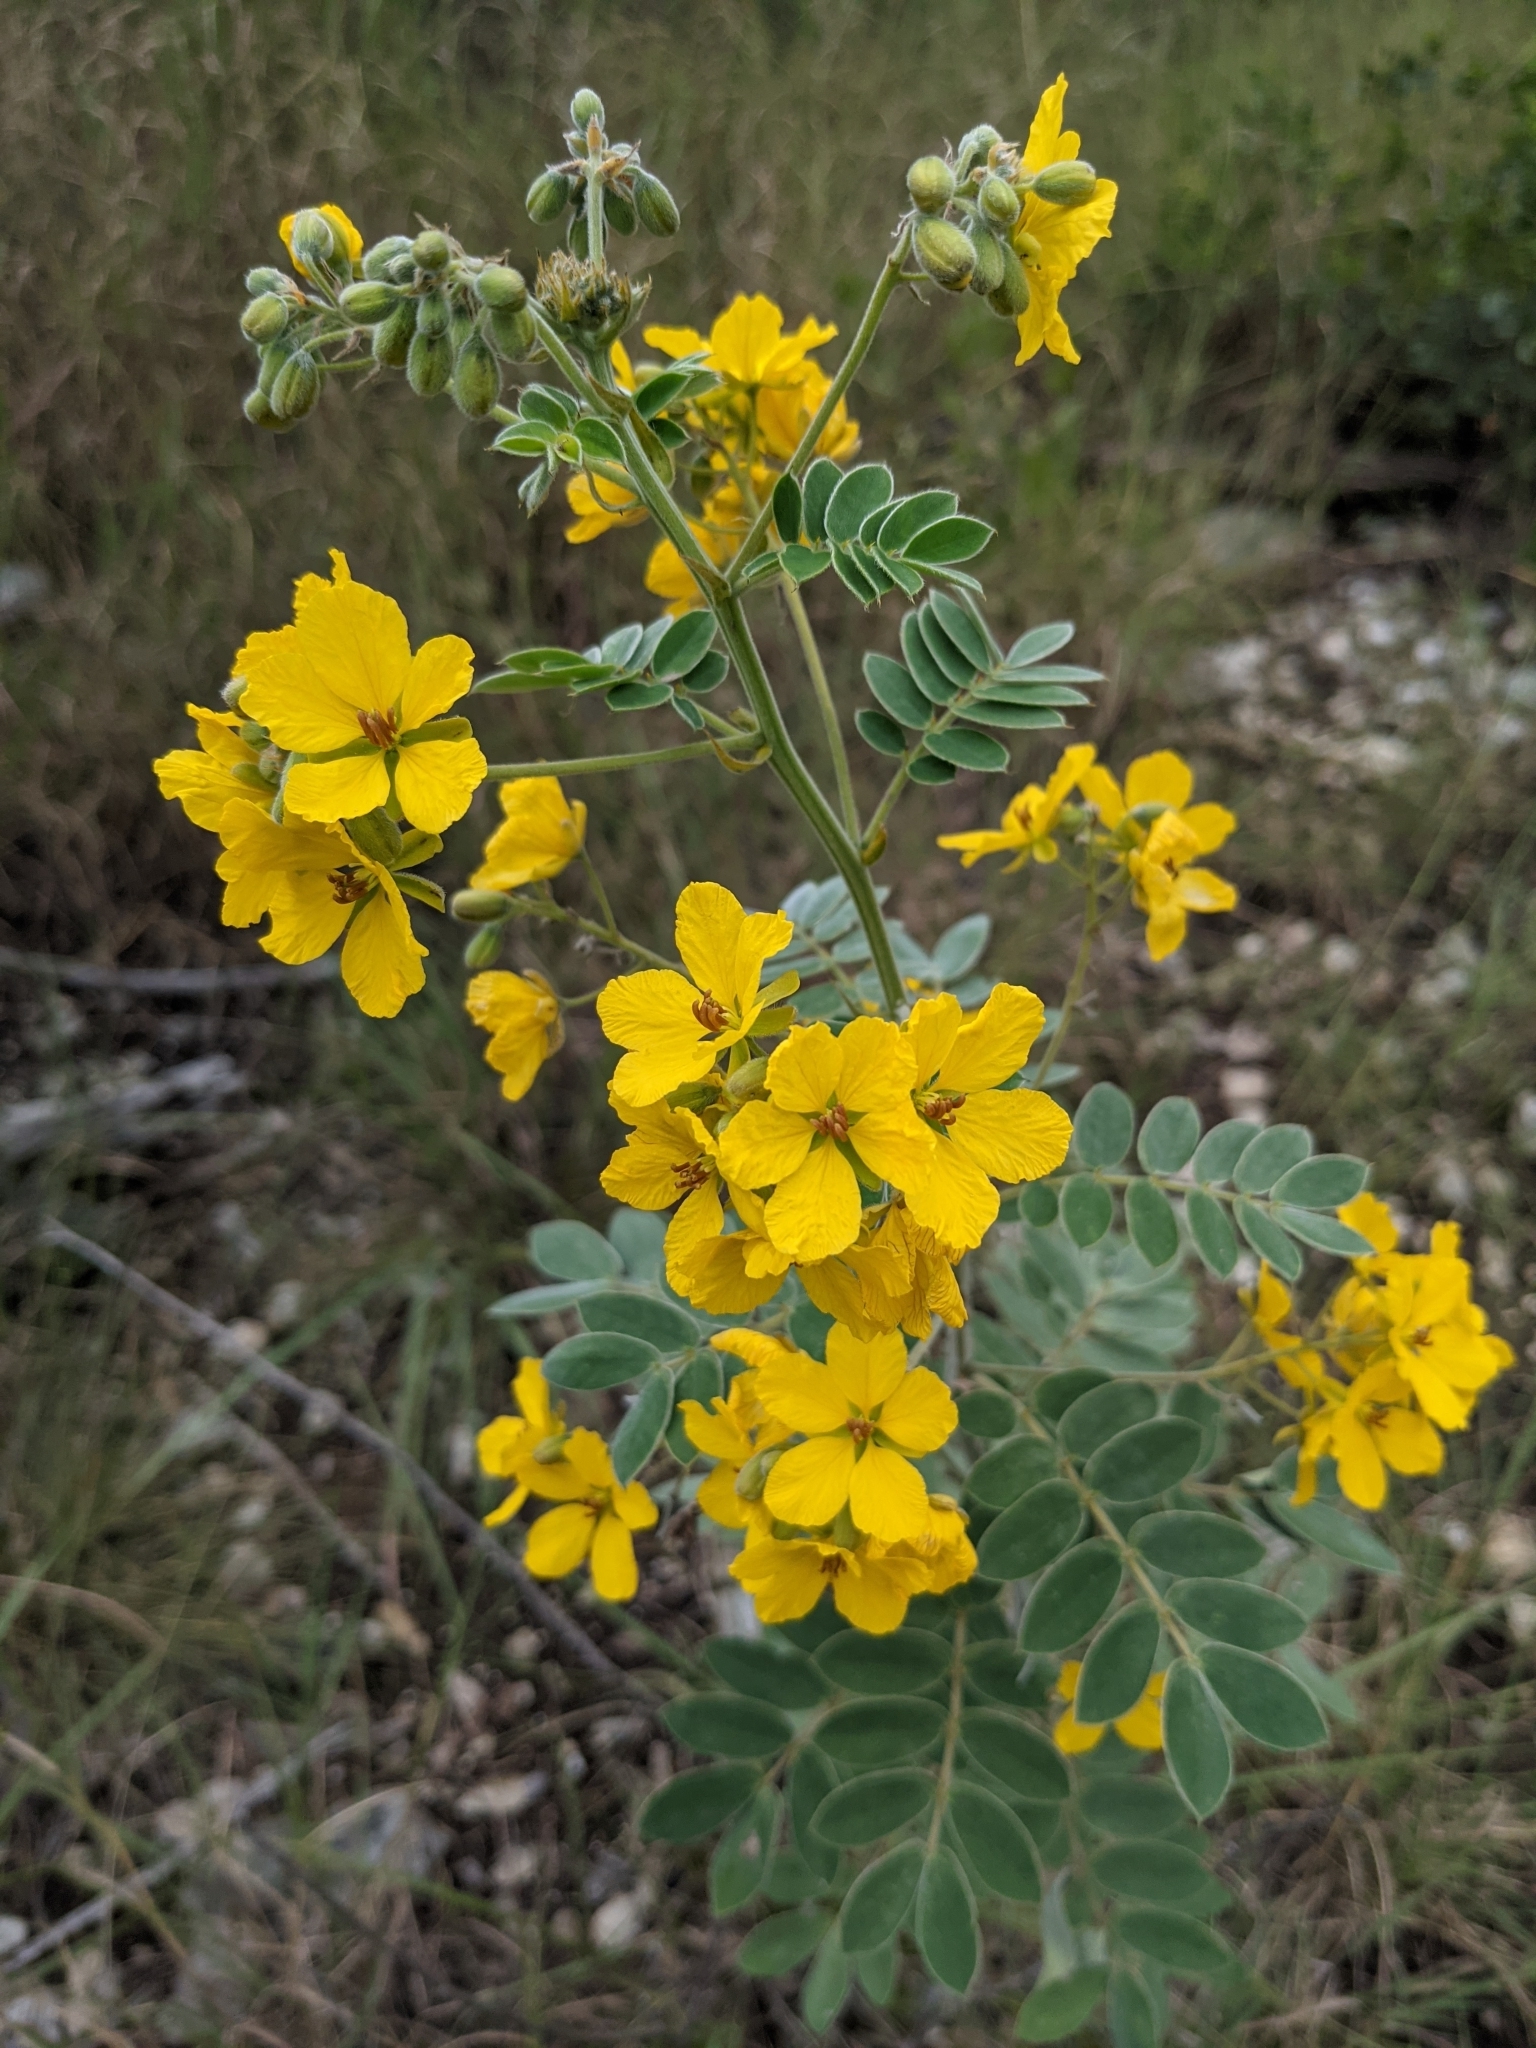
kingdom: Plantae
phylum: Tracheophyta
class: Magnoliopsida
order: Fabales
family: Fabaceae
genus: Senna
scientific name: Senna lindheimeriana
